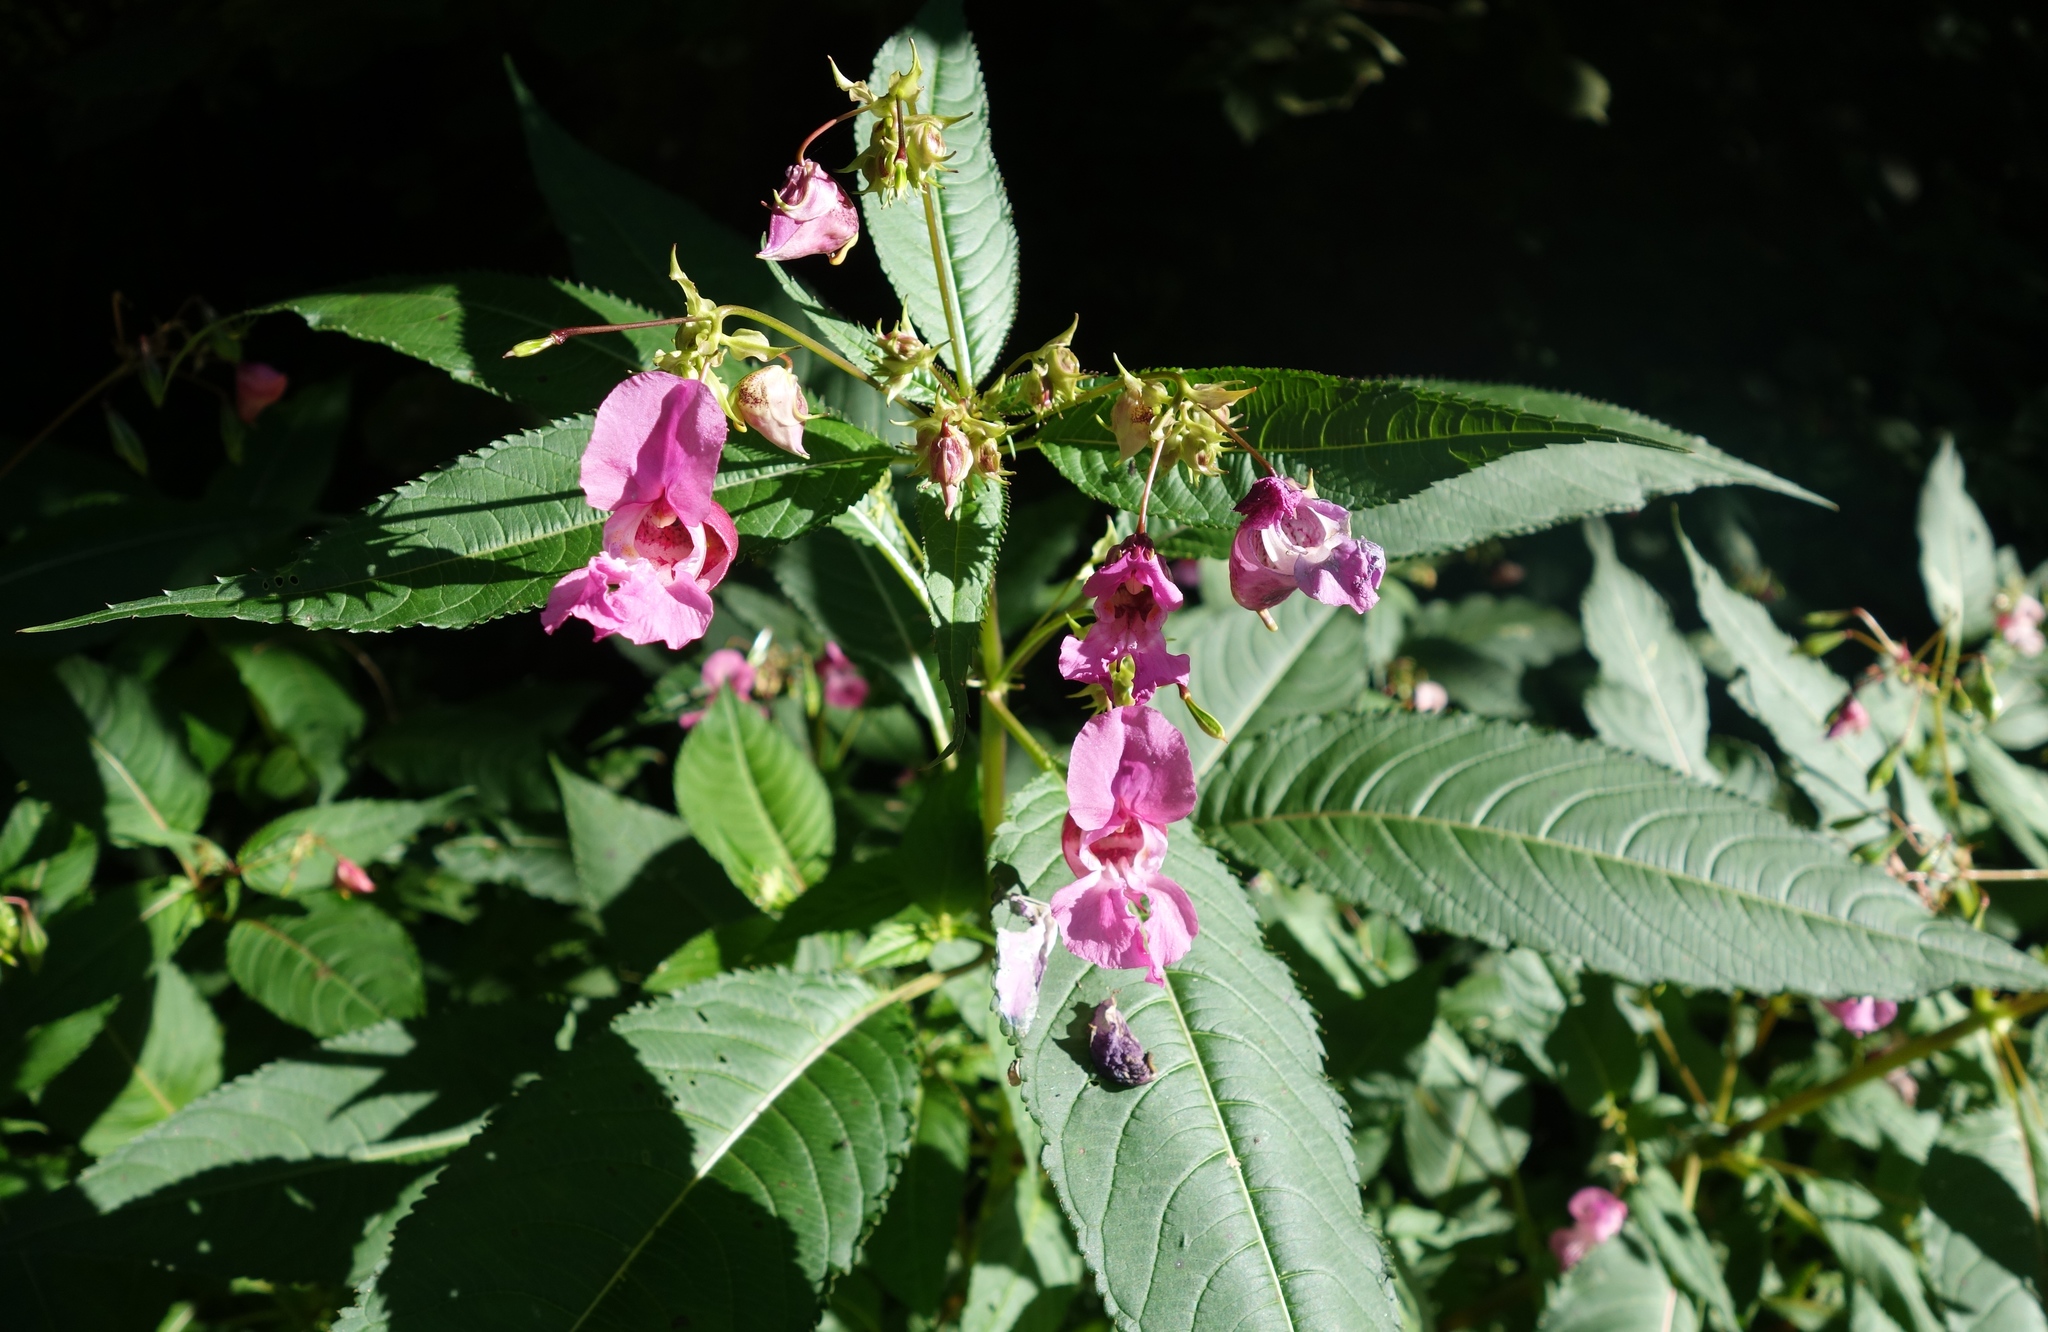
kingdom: Plantae
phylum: Tracheophyta
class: Magnoliopsida
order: Ericales
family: Balsaminaceae
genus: Impatiens
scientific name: Impatiens glandulifera
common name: Himalayan balsam
